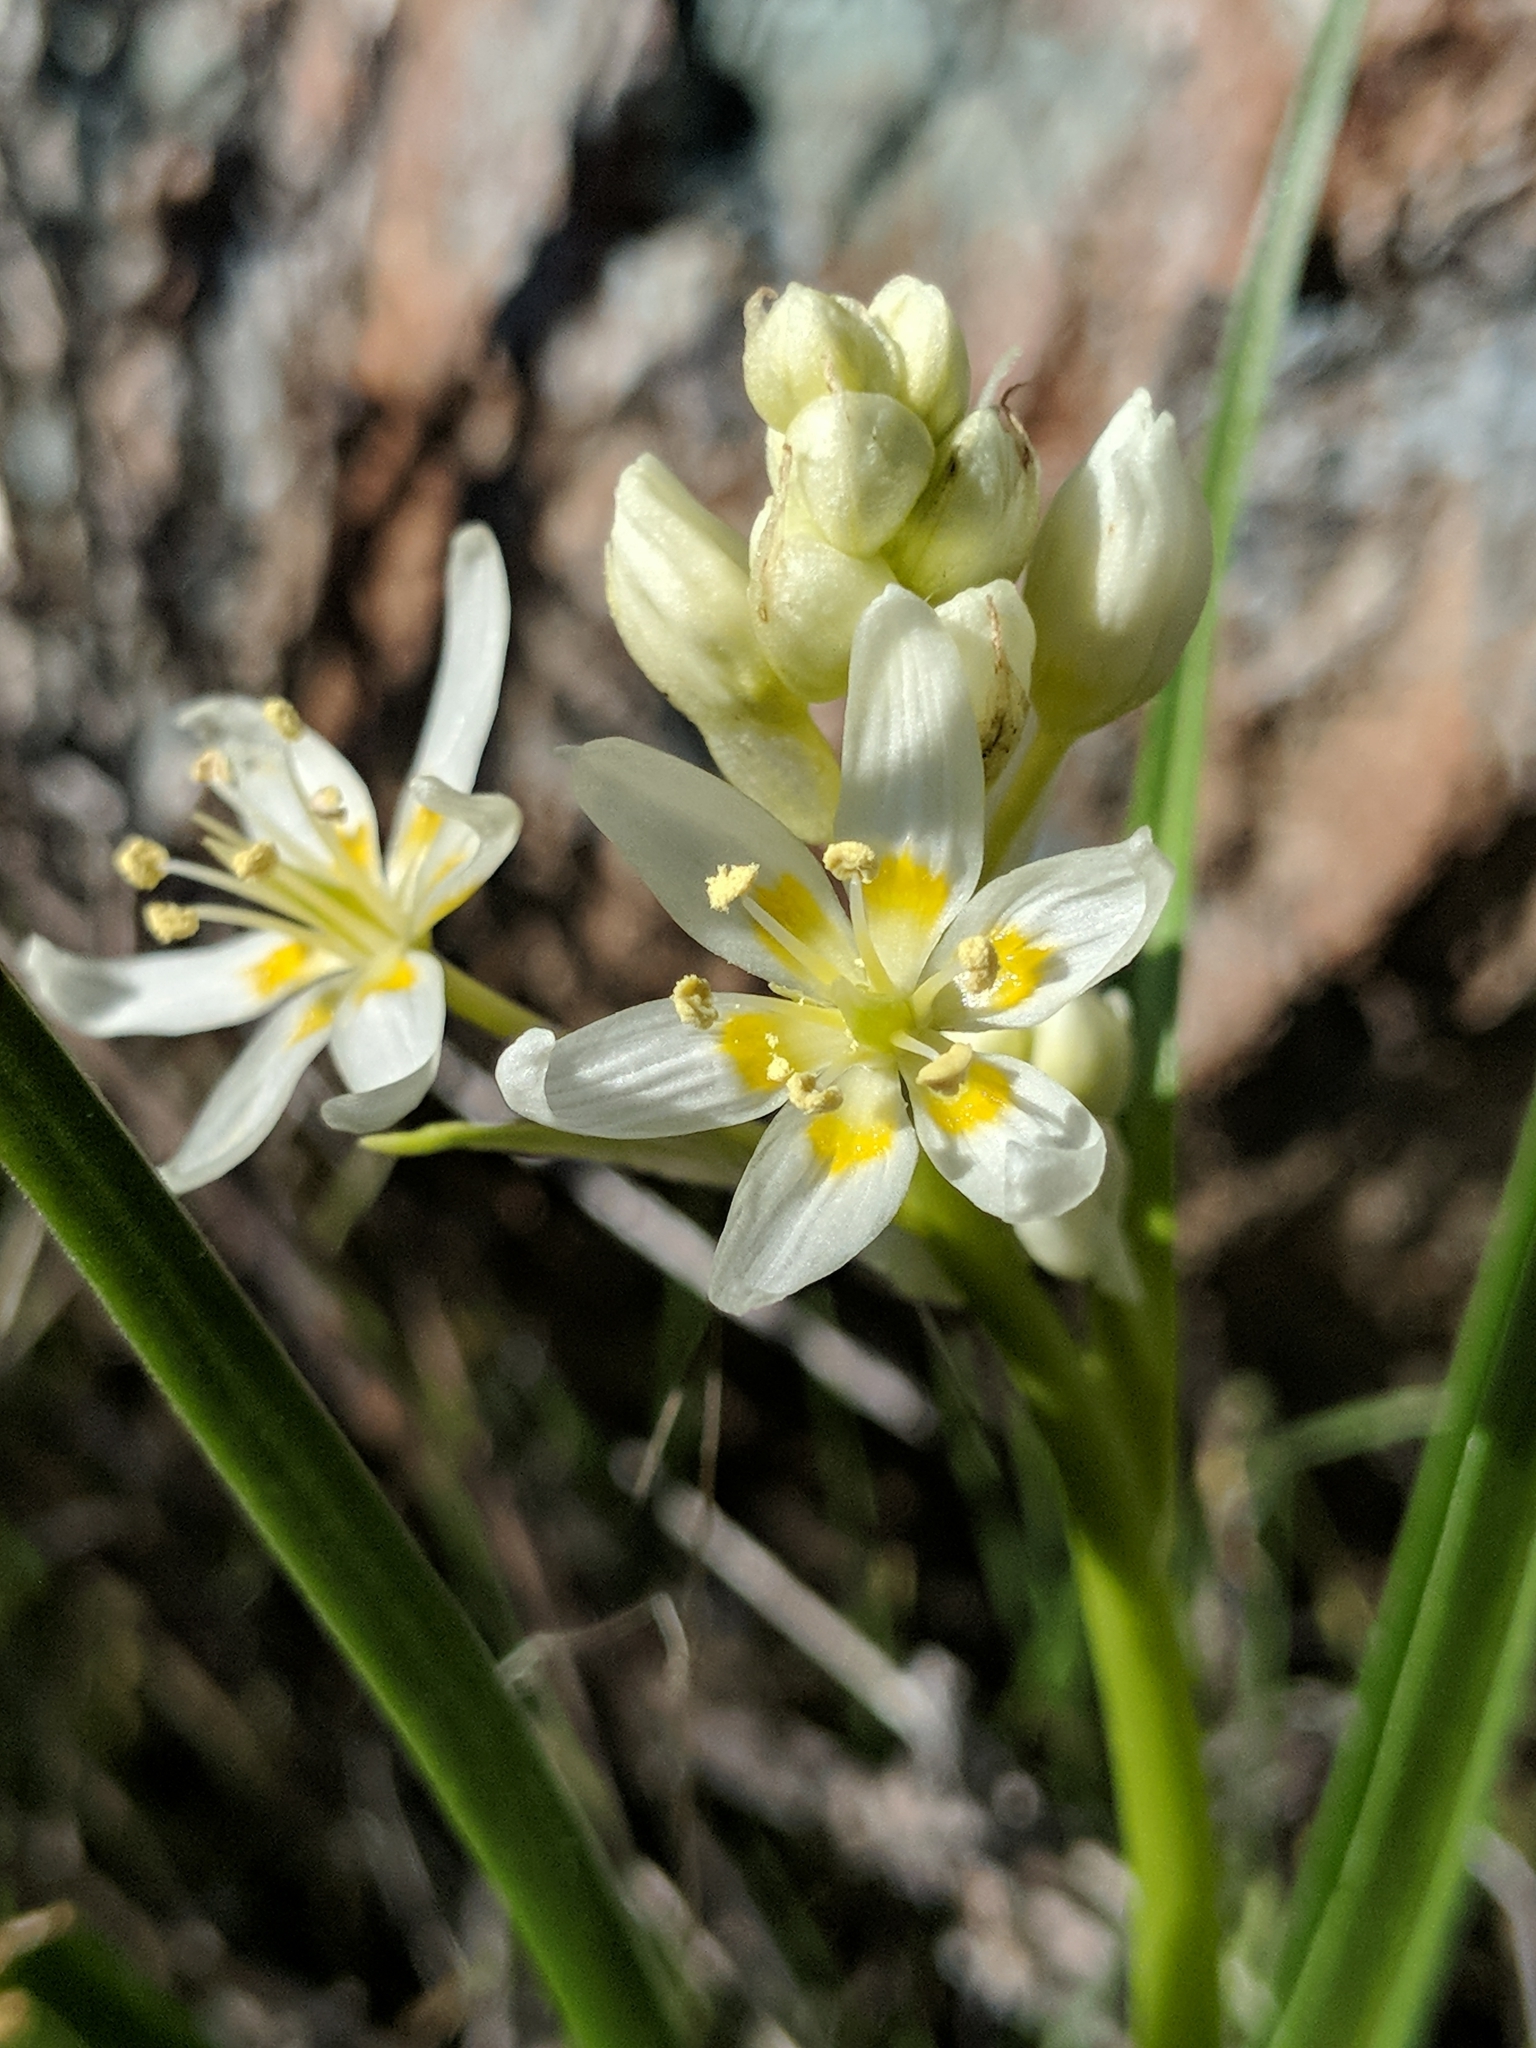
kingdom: Plantae
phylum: Tracheophyta
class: Liliopsida
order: Liliales
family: Melanthiaceae
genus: Toxicoscordion
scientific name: Toxicoscordion fremontii
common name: Fremont's death camas
